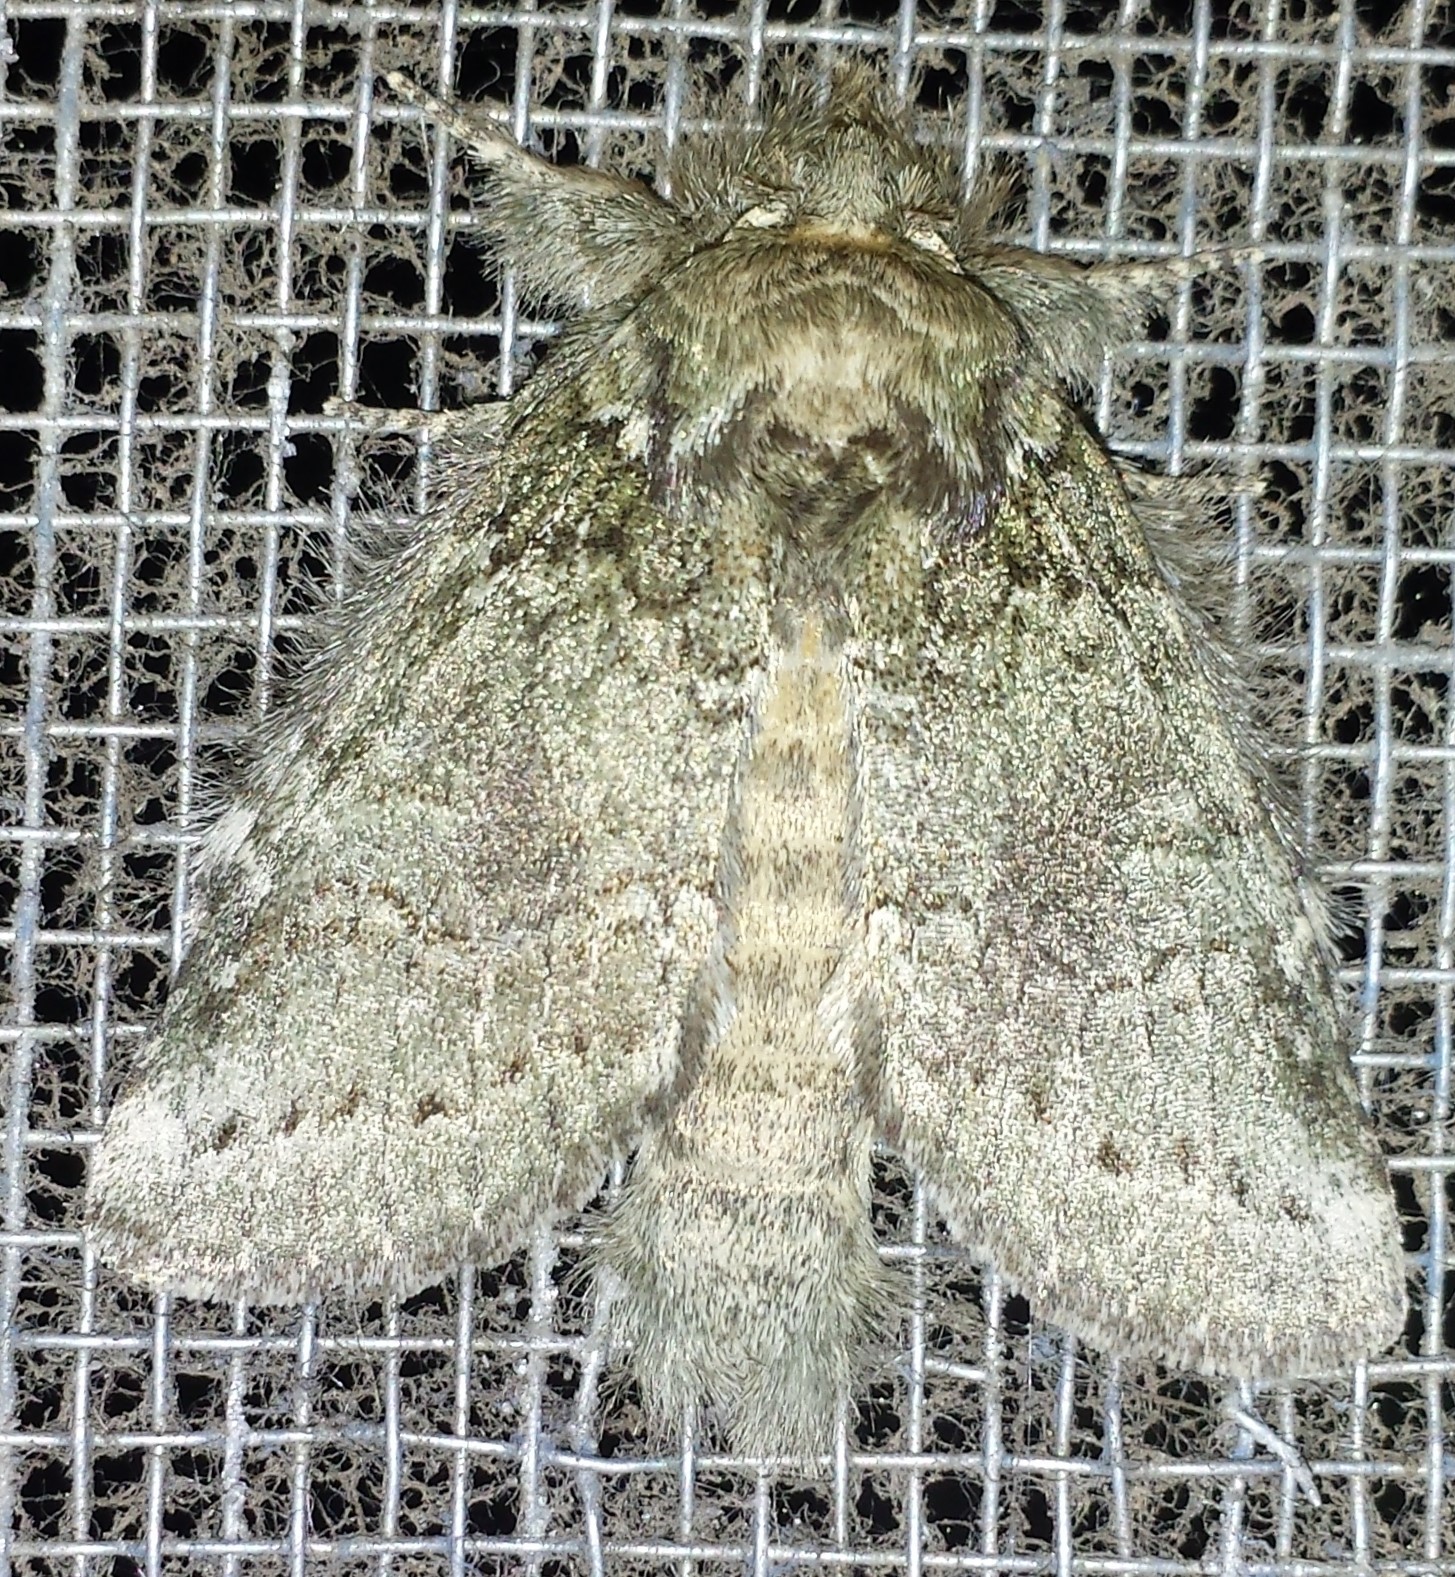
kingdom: Animalia
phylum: Arthropoda
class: Insecta
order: Lepidoptera
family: Notodontidae
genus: Disphragis
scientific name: Disphragis Cecrita guttivitta
